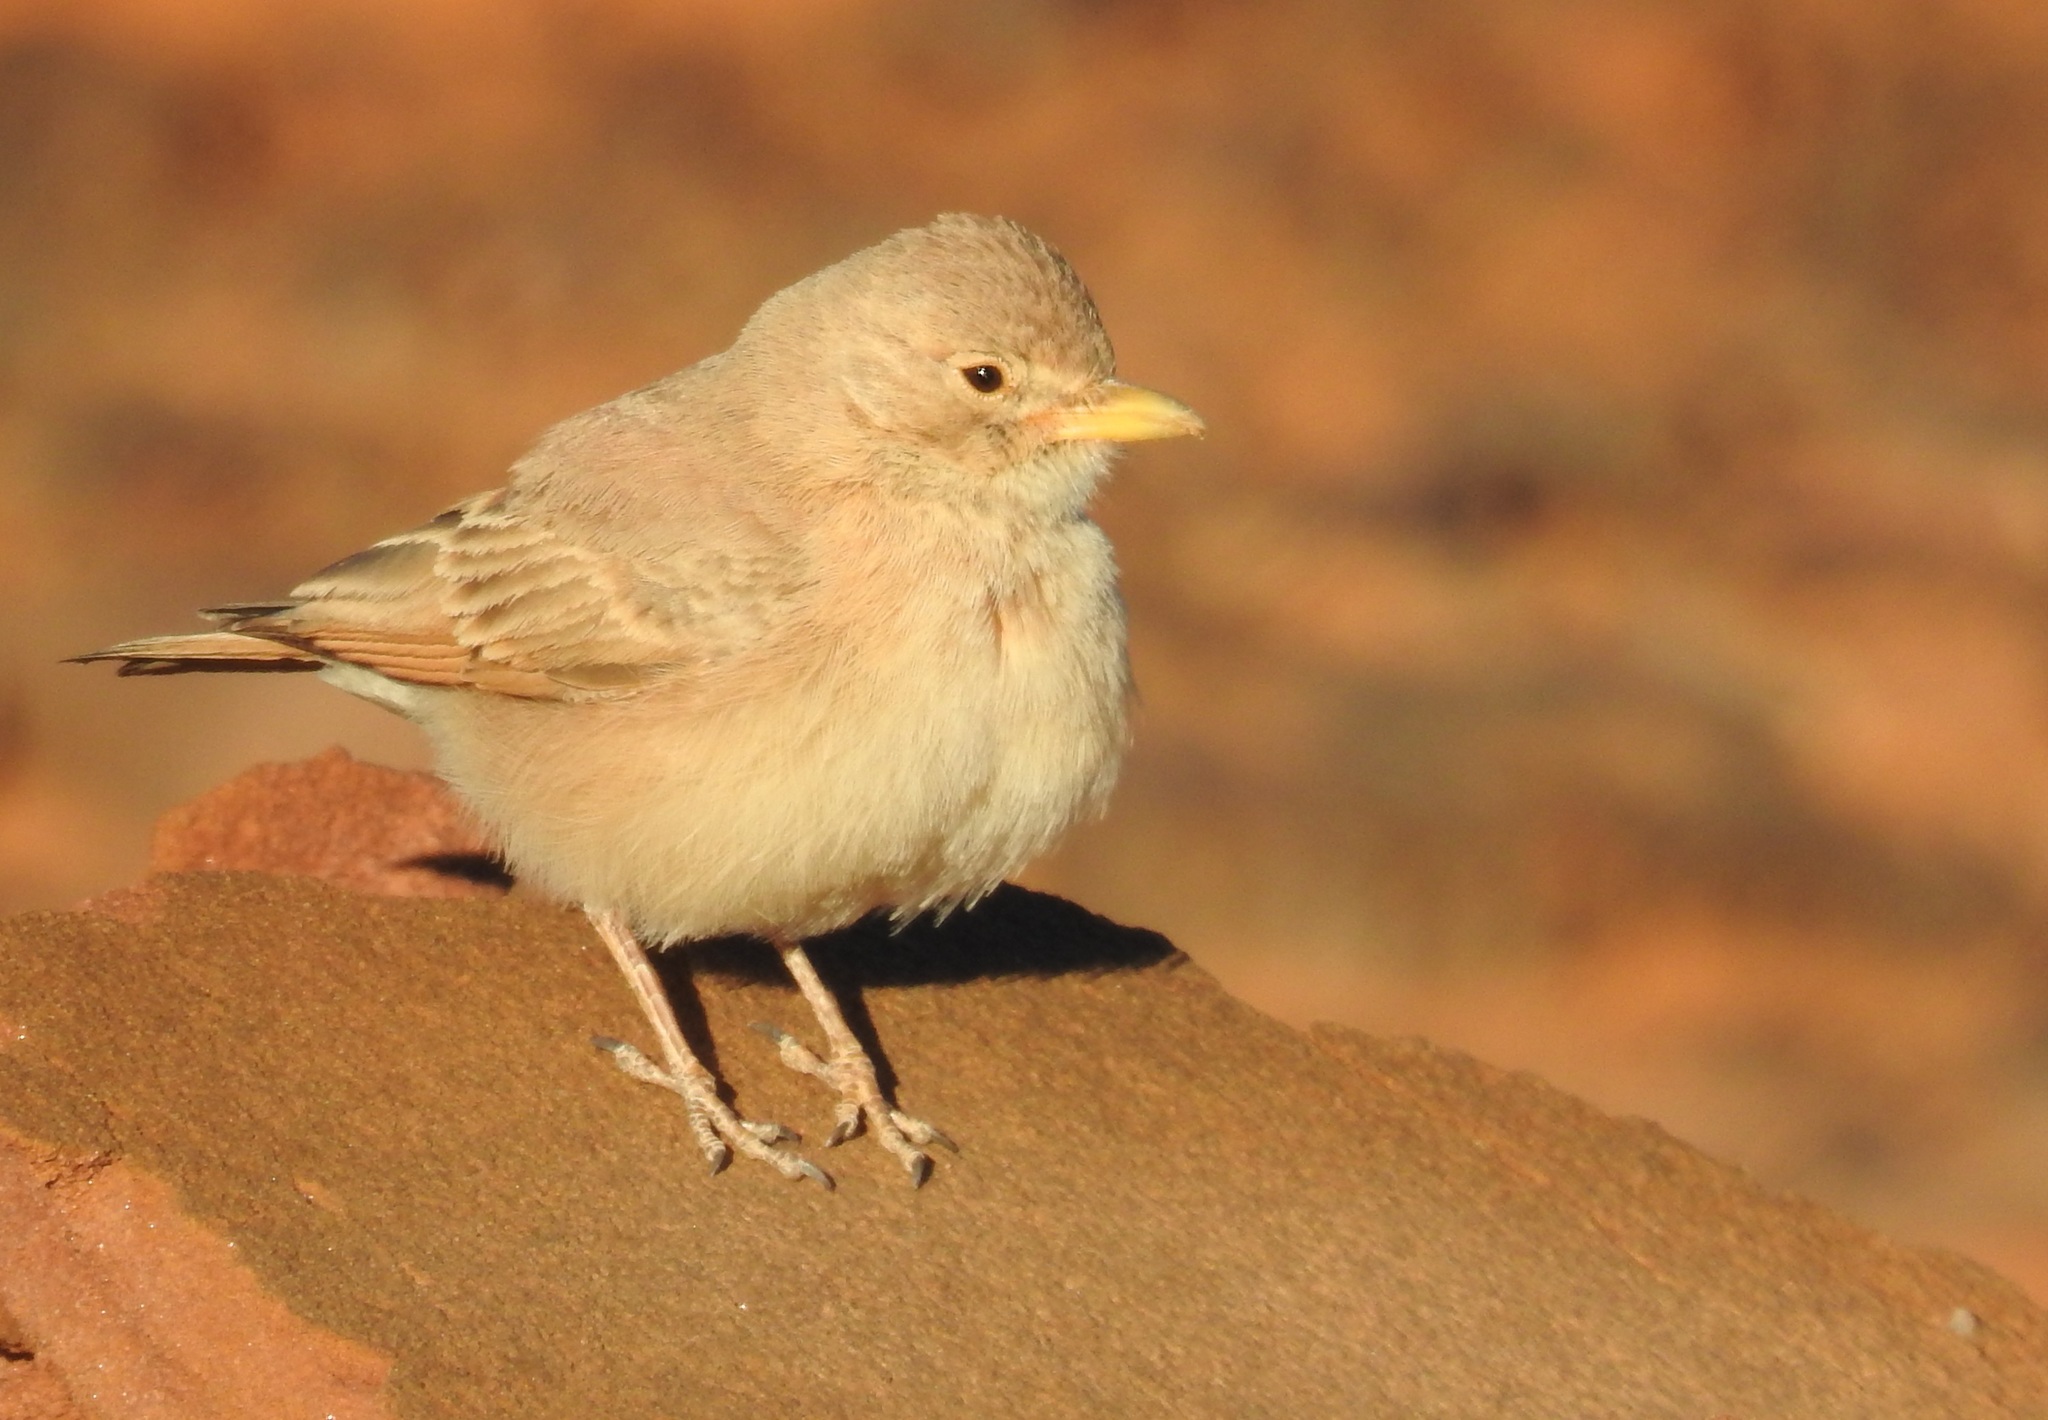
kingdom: Animalia
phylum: Chordata
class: Aves
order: Passeriformes
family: Alaudidae
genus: Ammomanes
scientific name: Ammomanes deserti
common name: Desert lark
